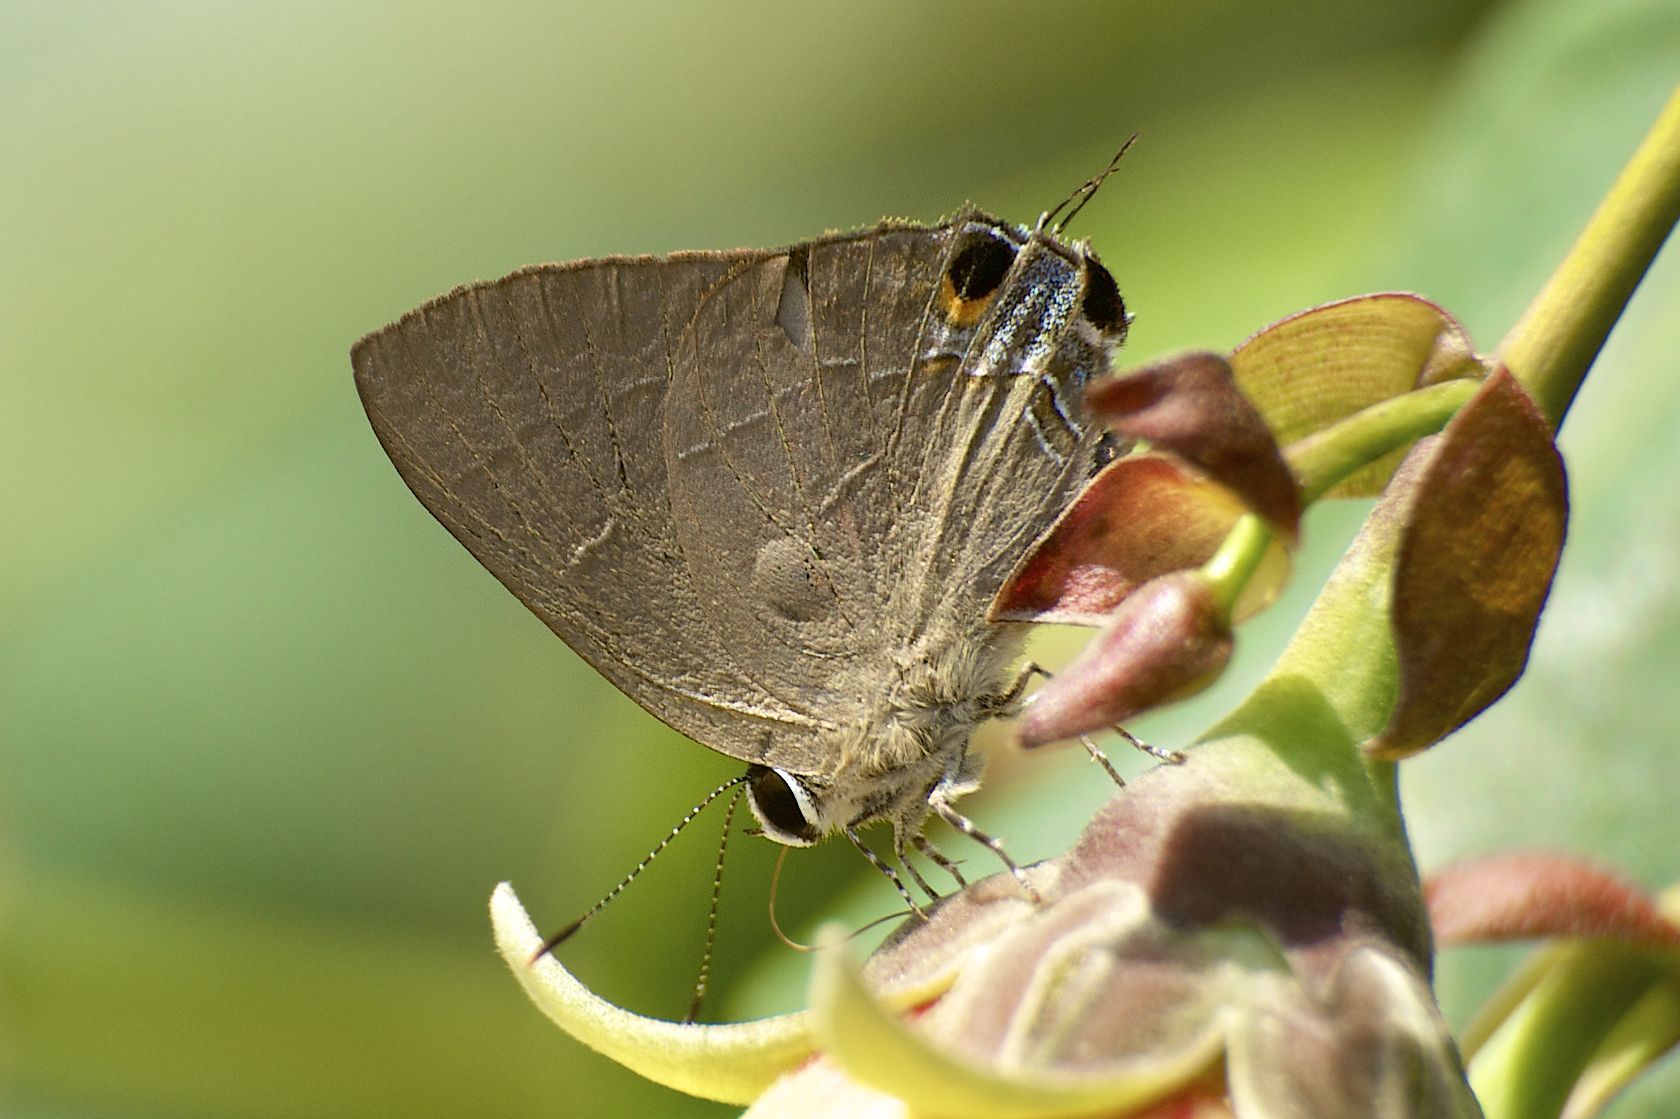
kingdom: Animalia
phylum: Arthropoda
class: Insecta
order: Lepidoptera
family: Lycaenidae
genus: Rapala
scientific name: Rapala manea
